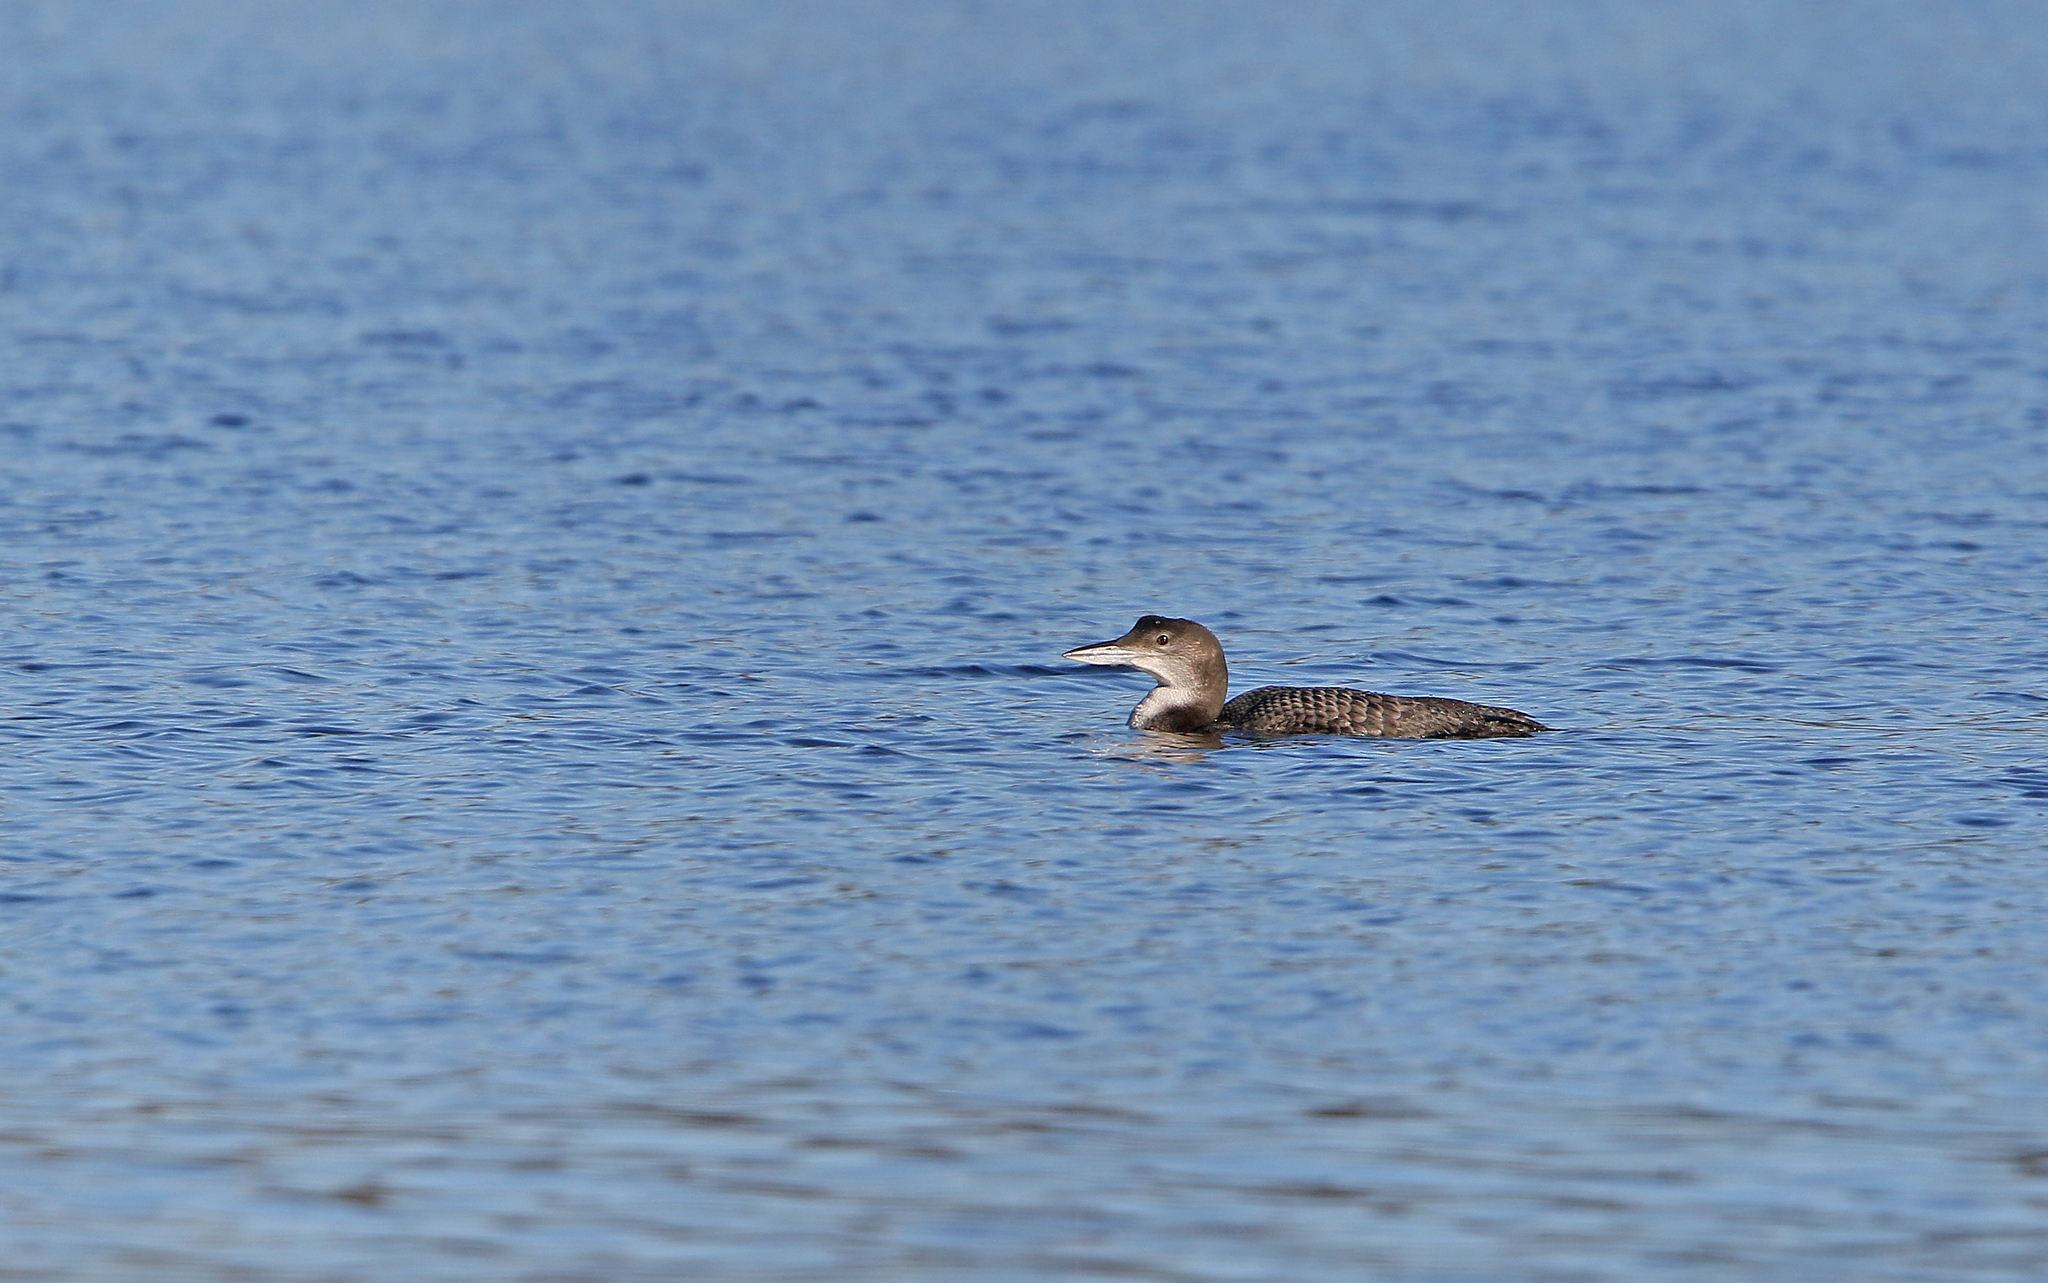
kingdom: Animalia
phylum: Chordata
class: Aves
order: Gaviiformes
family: Gaviidae
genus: Gavia
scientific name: Gavia immer
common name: Common loon
